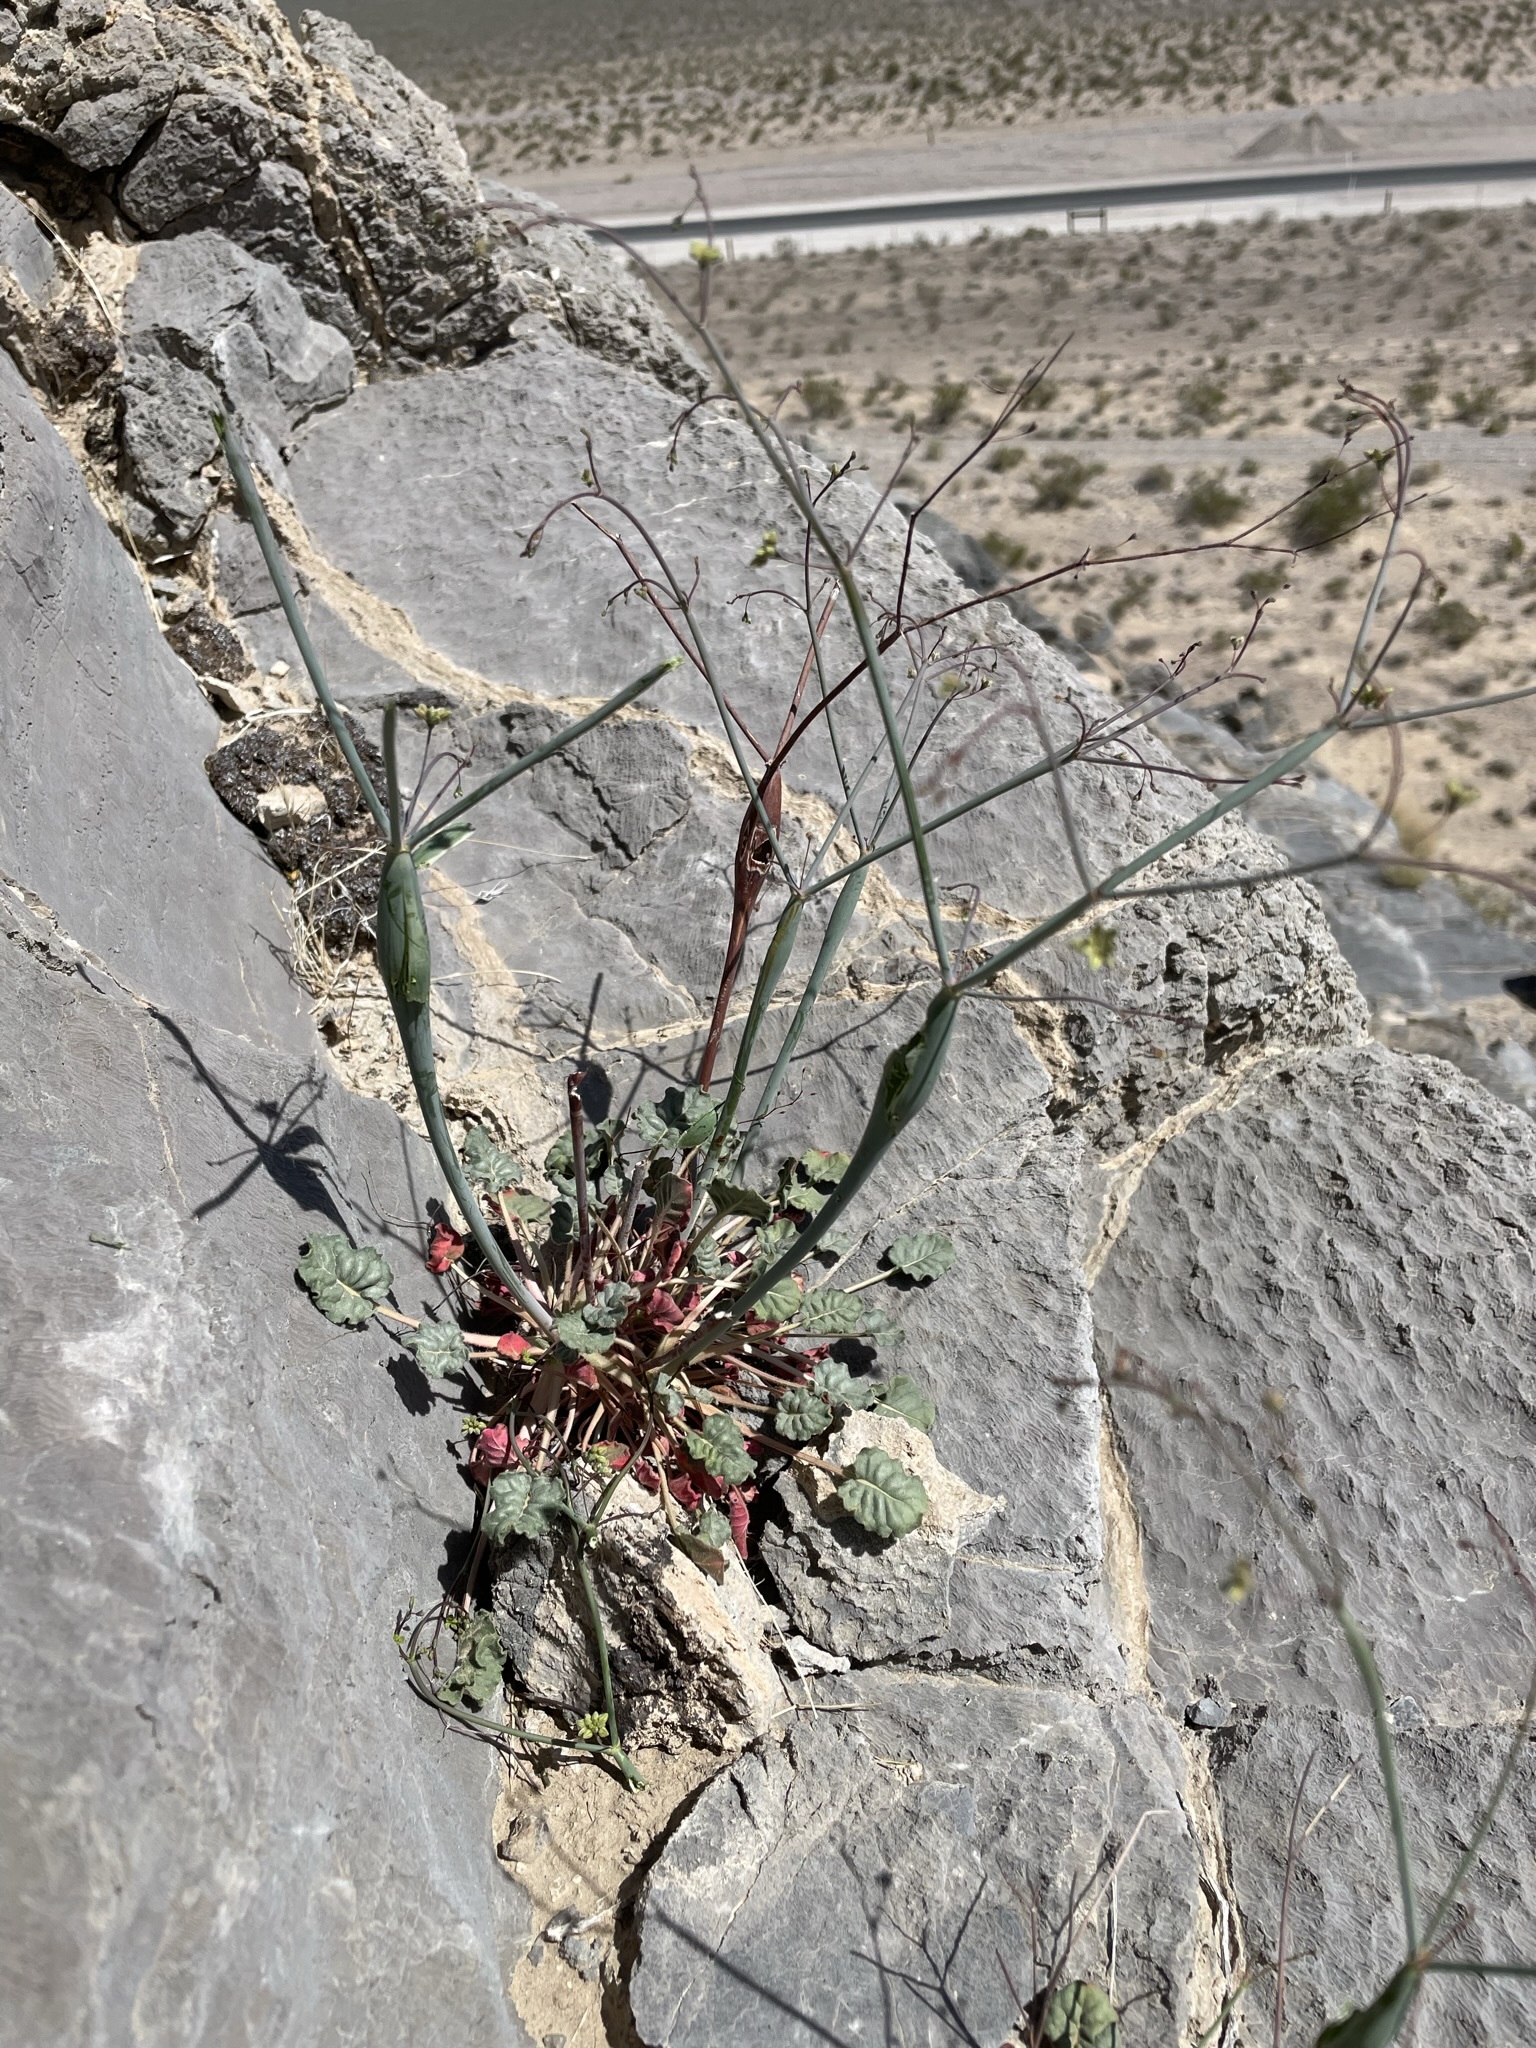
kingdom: Plantae
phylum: Tracheophyta
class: Magnoliopsida
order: Caryophyllales
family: Polygonaceae
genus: Eriogonum
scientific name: Eriogonum inflatum
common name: Desert trumpet
